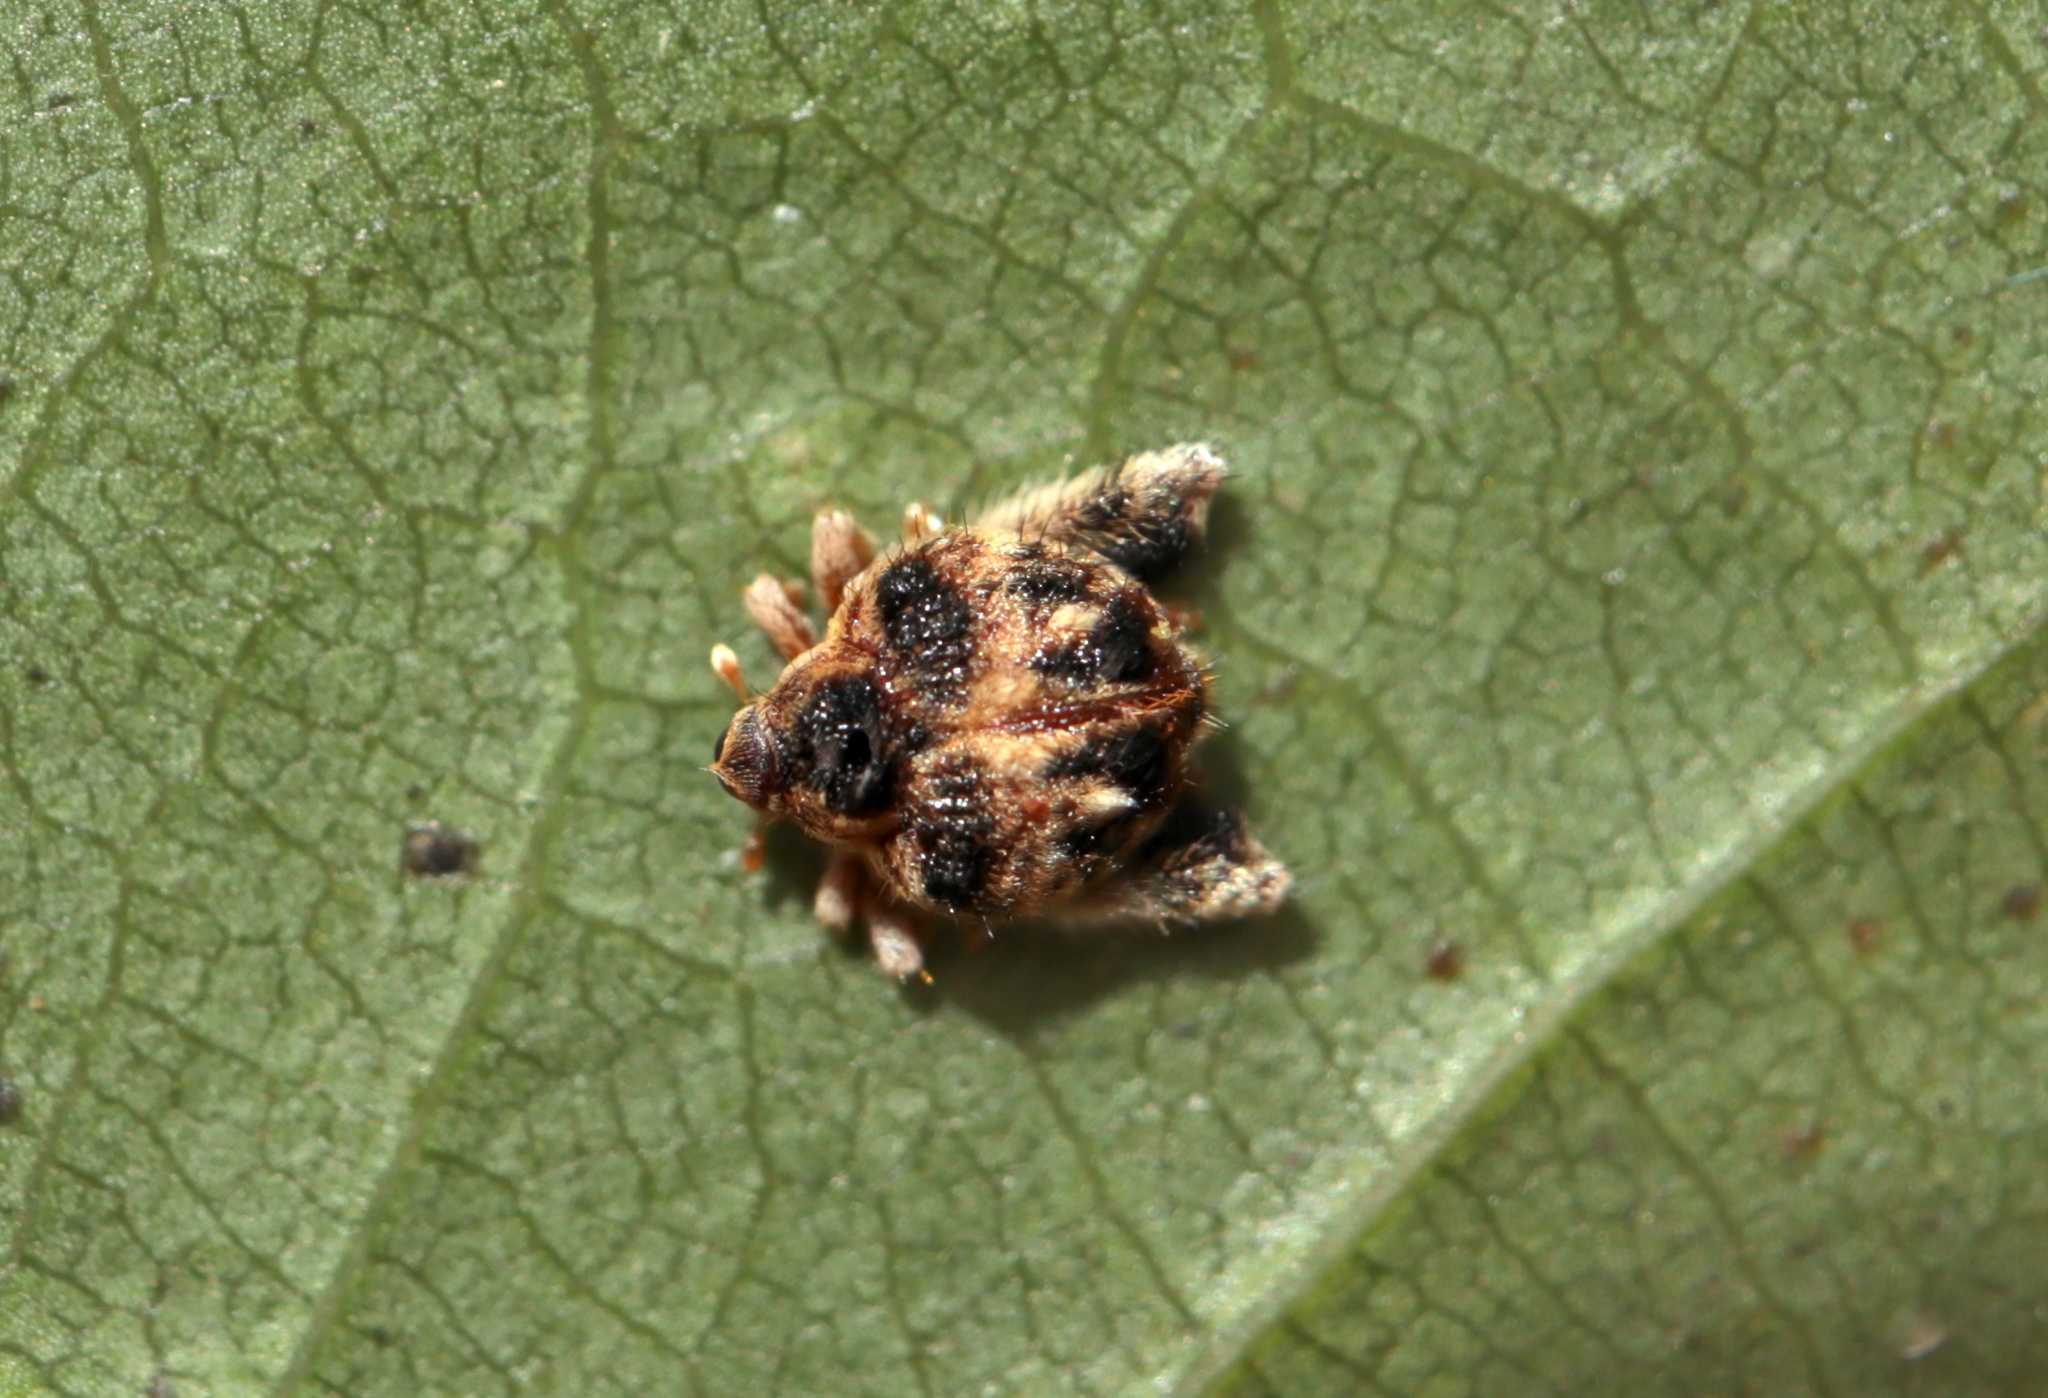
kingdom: Animalia
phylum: Arthropoda
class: Insecta
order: Coleoptera
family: Curculionidae
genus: Tachygonus
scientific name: Tachygonus lecontei
